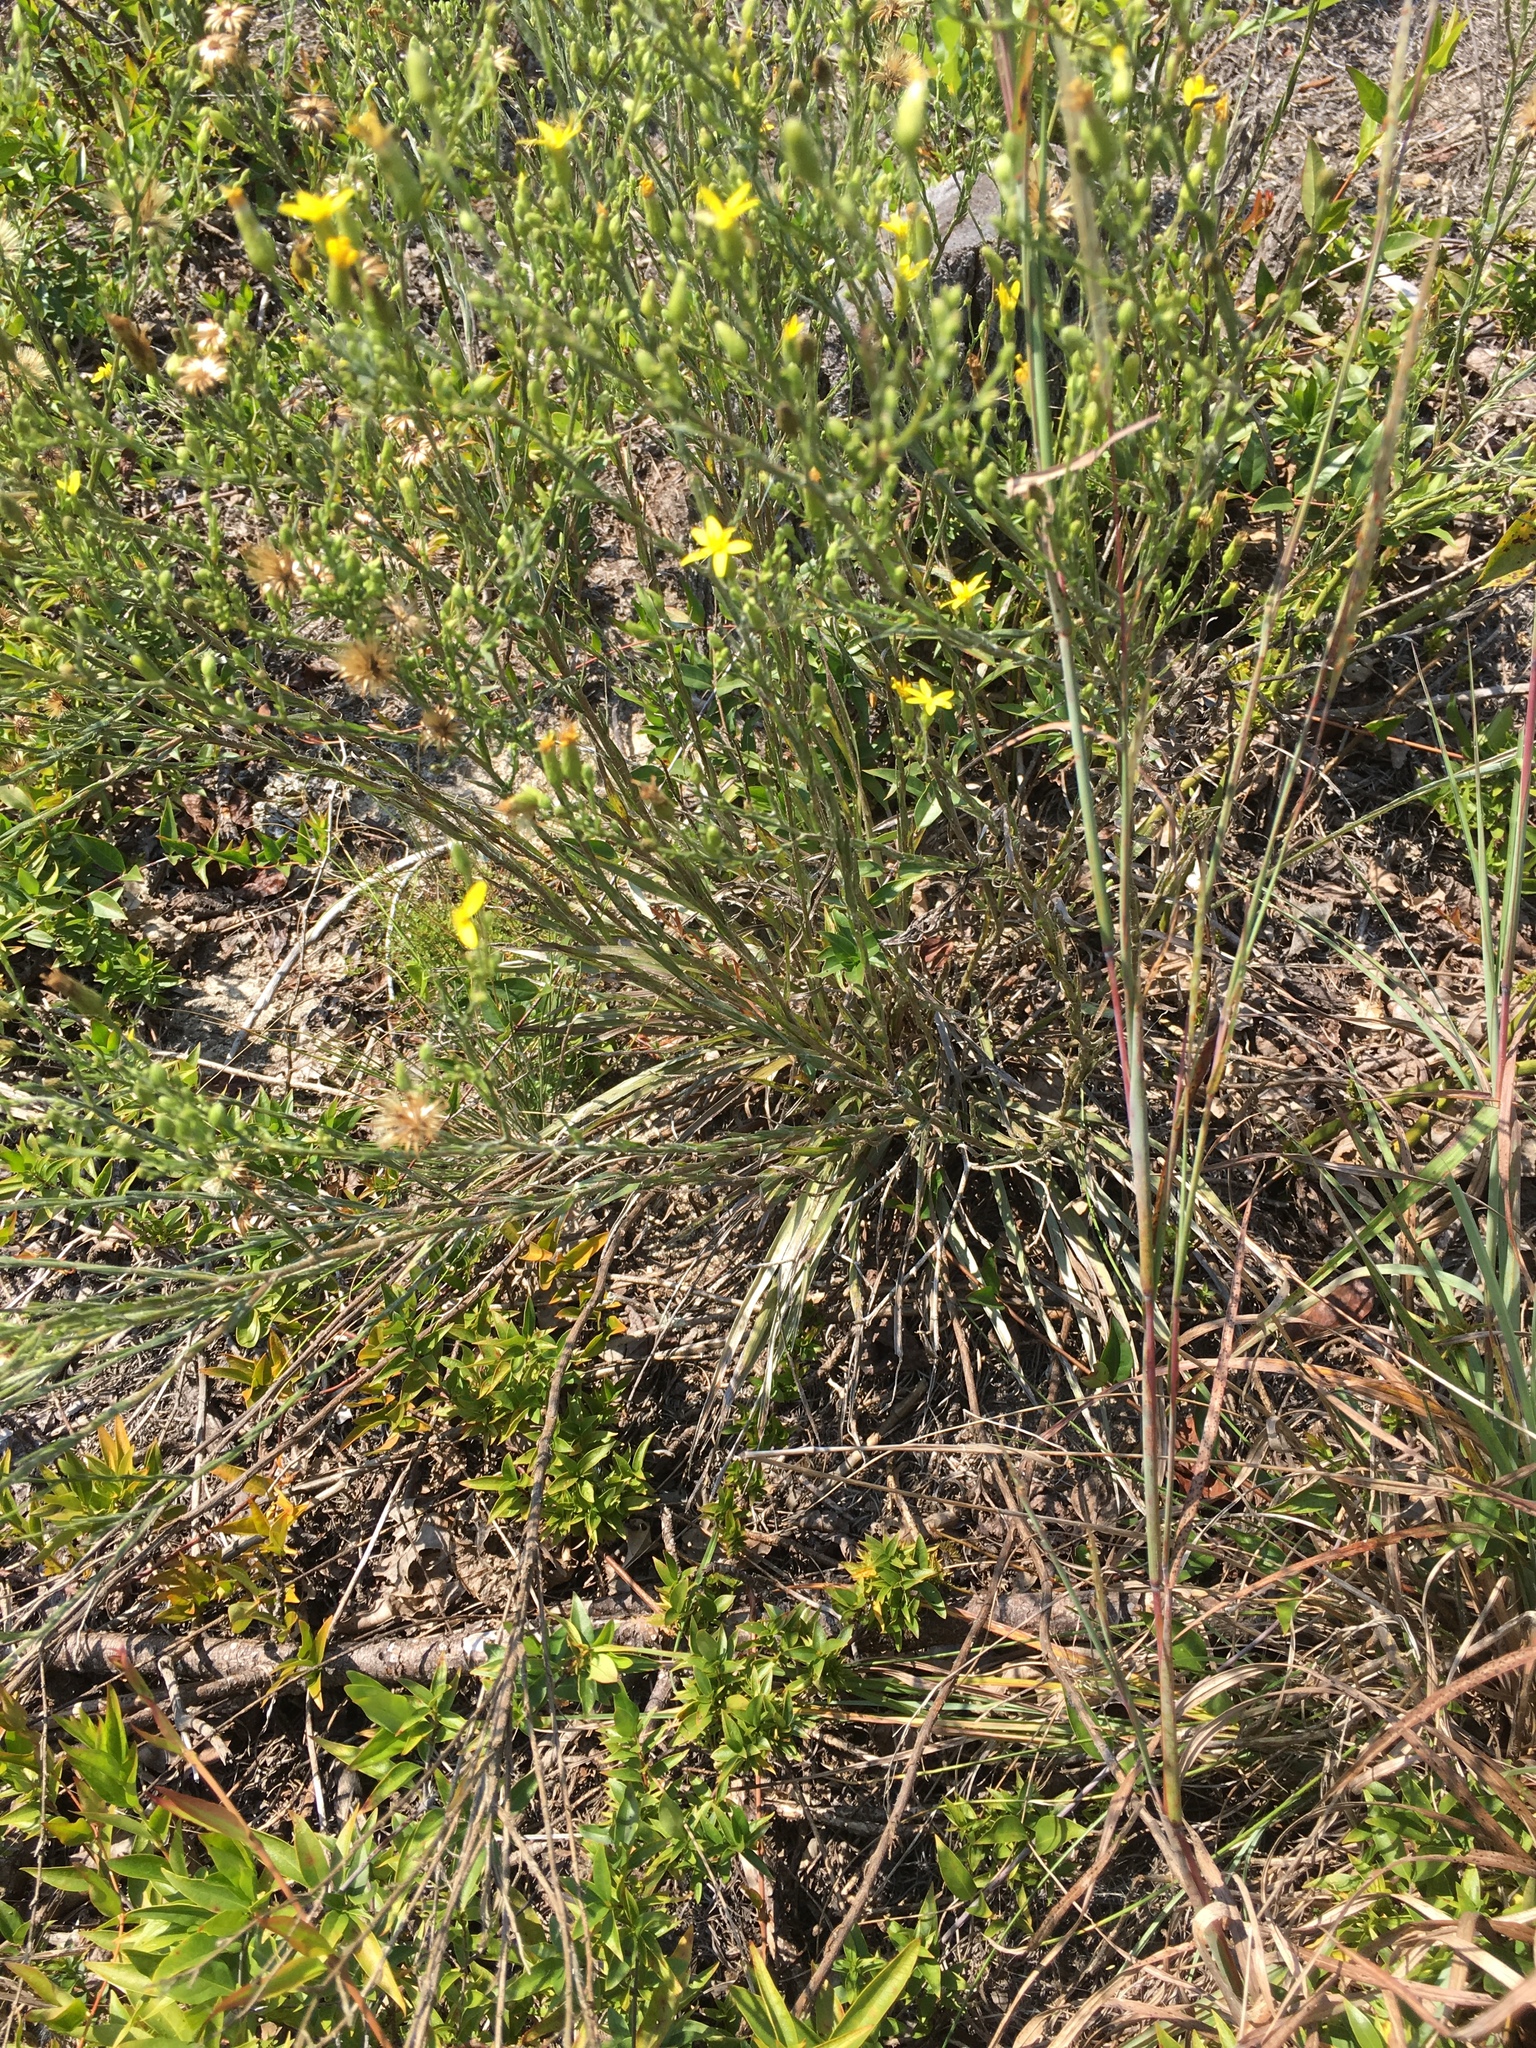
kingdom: Plantae
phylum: Tracheophyta
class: Magnoliopsida
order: Asterales
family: Asteraceae
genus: Pityopsis
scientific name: Pityopsis aspera
